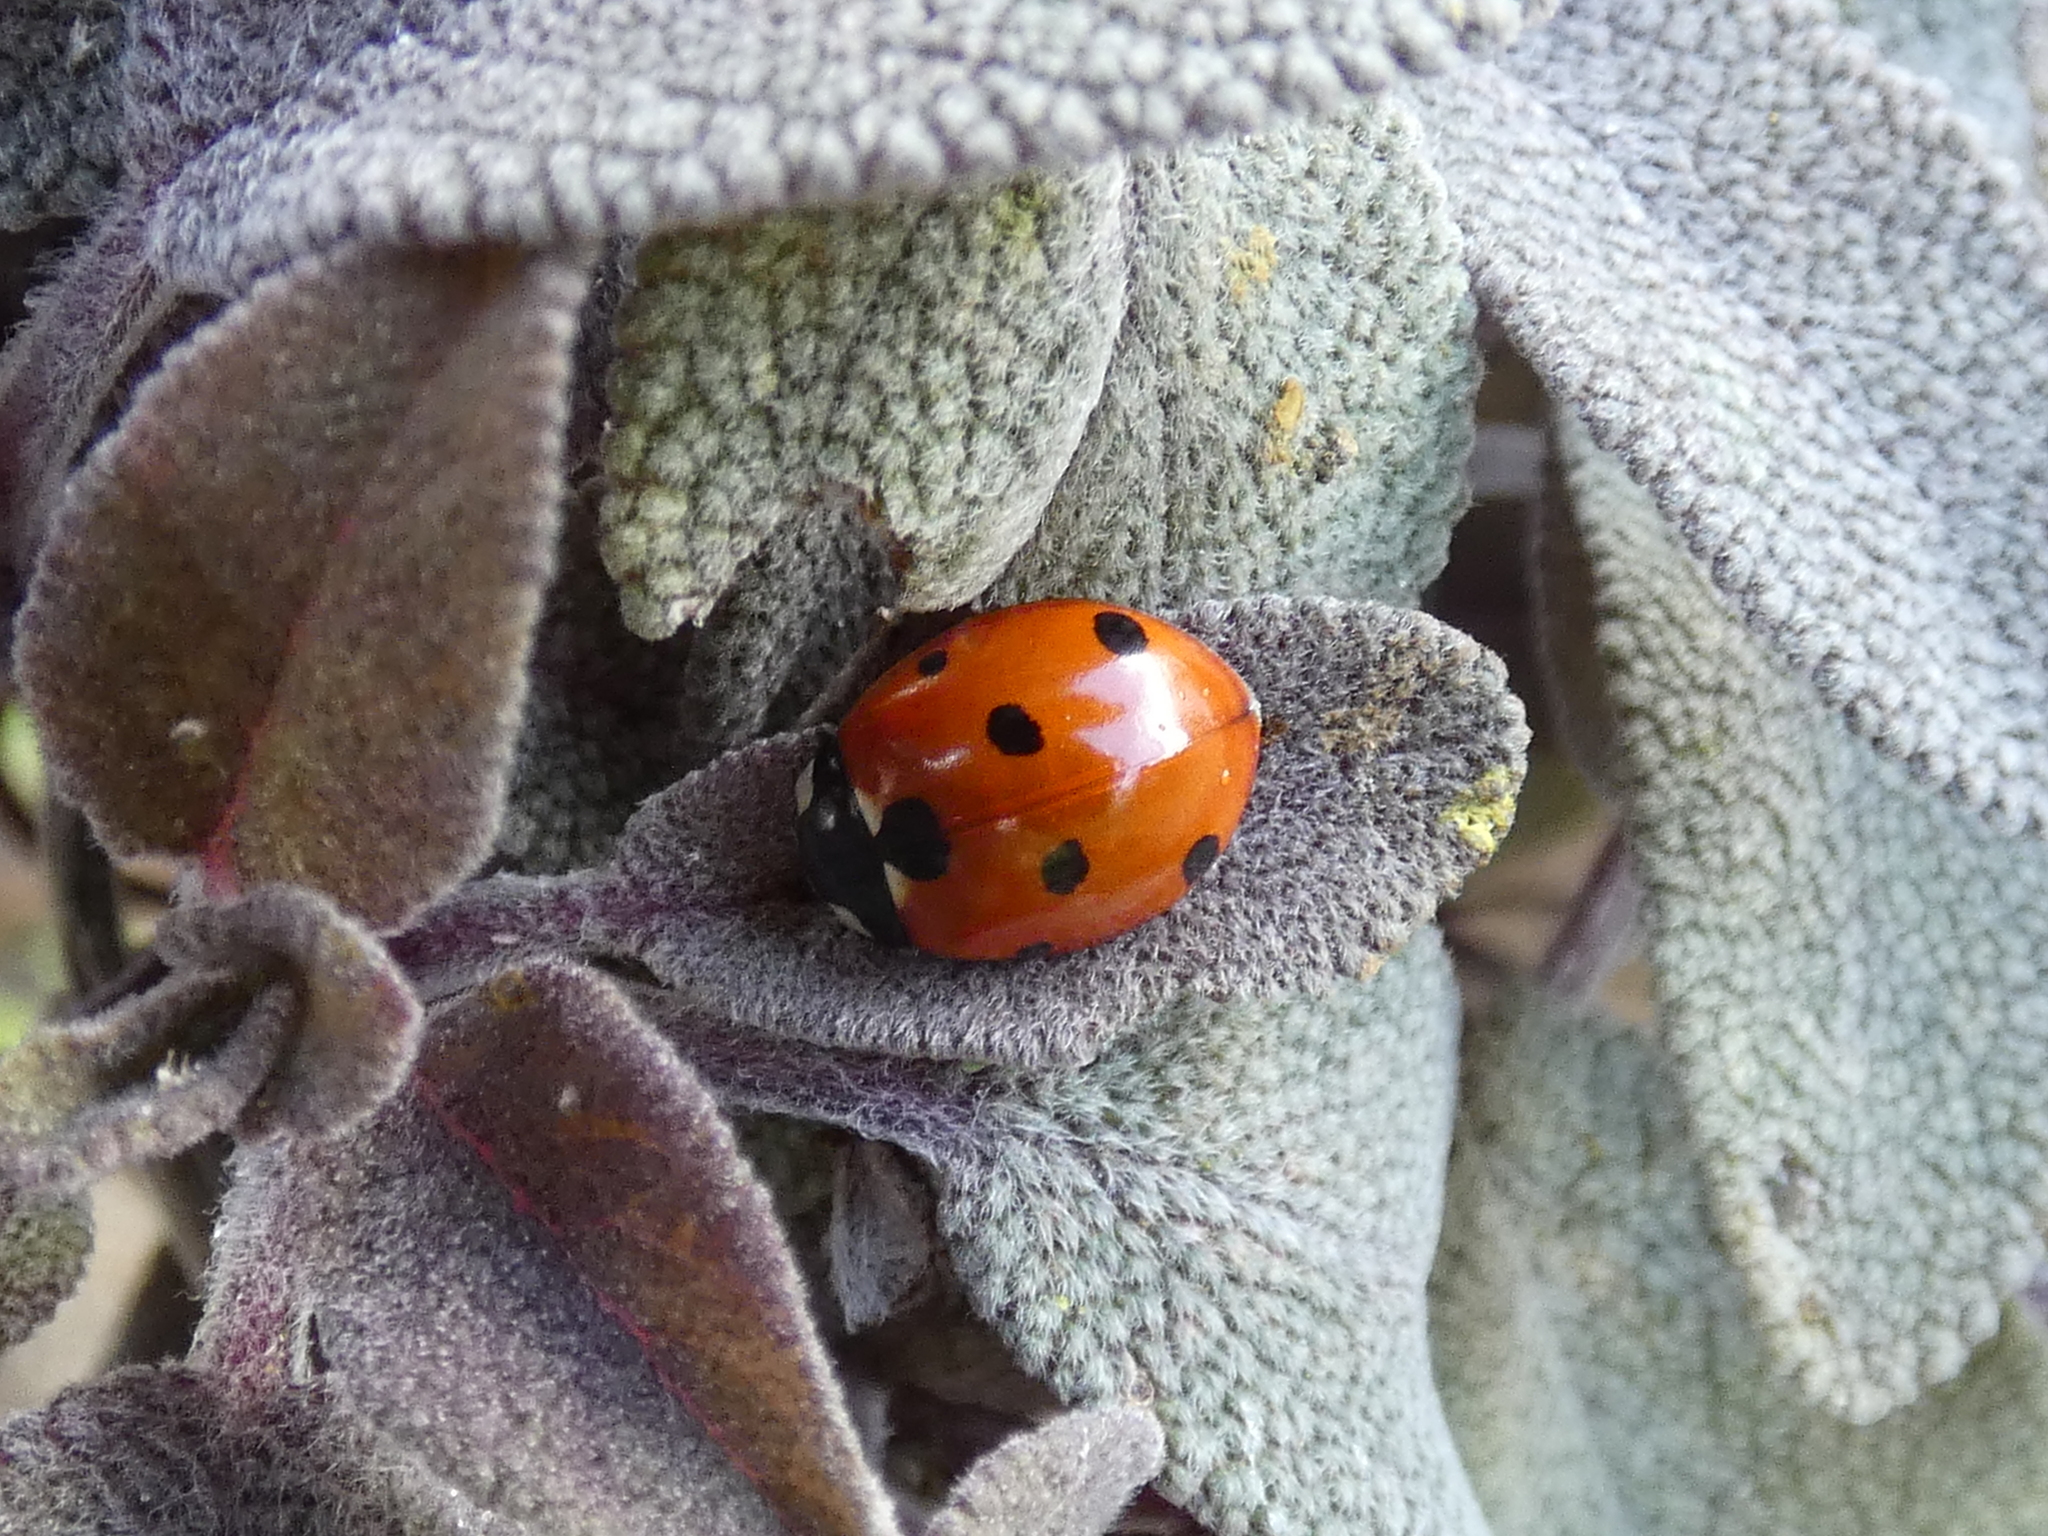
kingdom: Animalia
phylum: Arthropoda
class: Insecta
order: Coleoptera
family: Coccinellidae
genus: Coccinella
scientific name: Coccinella septempunctata
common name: Sevenspotted lady beetle
